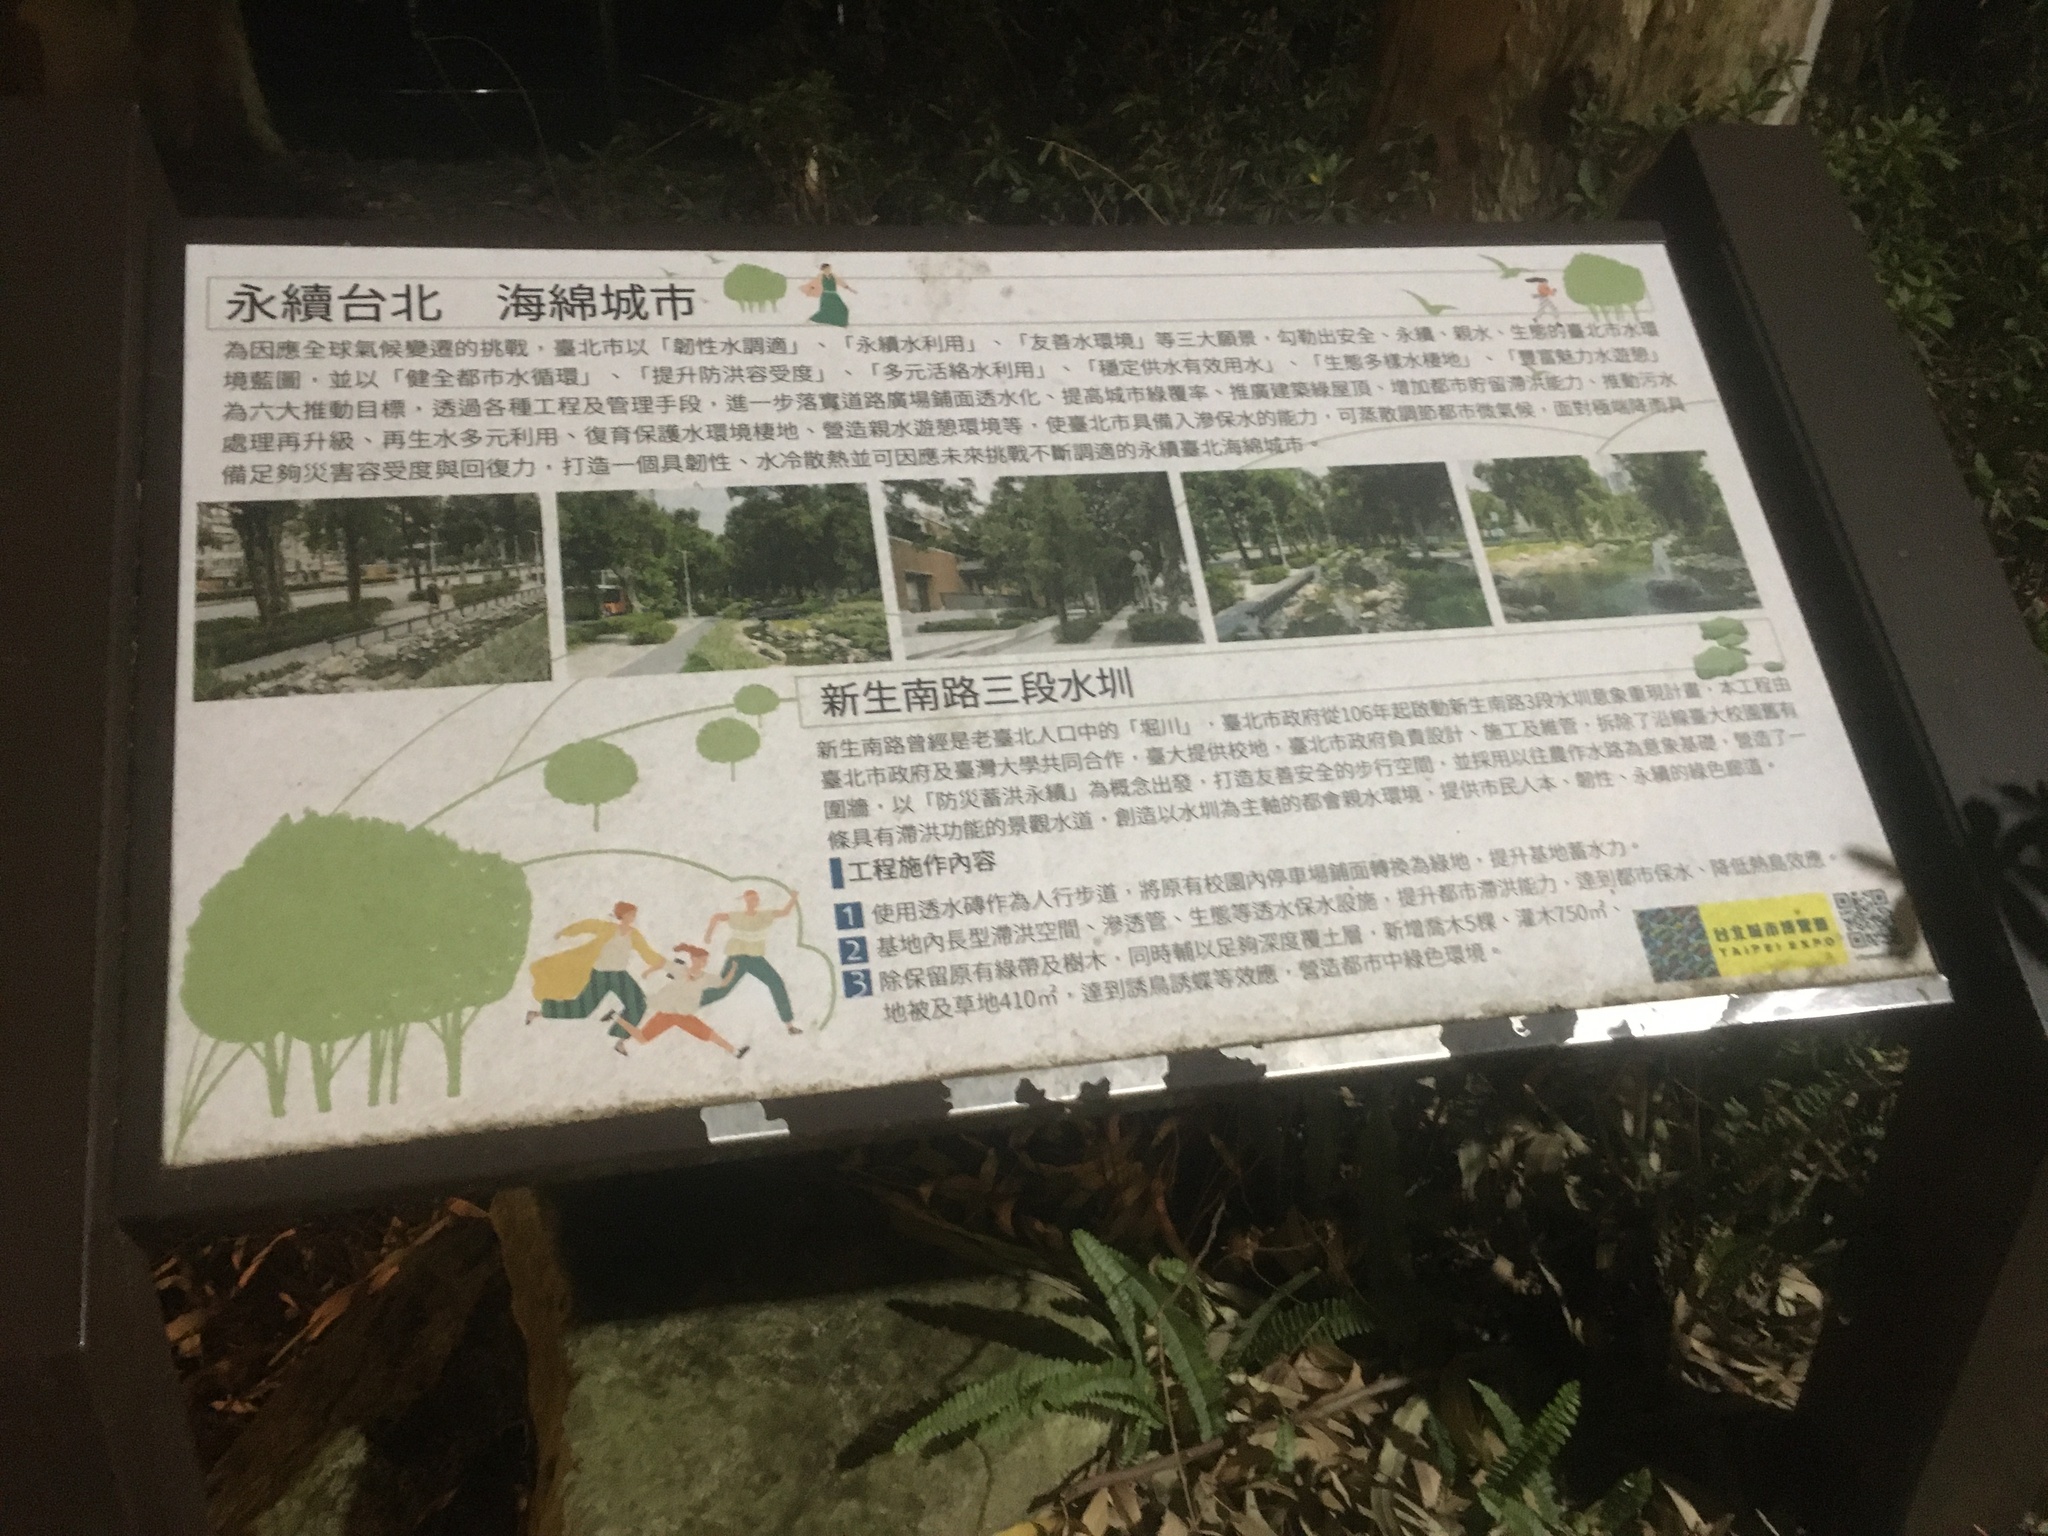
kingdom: Animalia
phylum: Chordata
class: Aves
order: Pelecaniformes
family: Ardeidae
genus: Nycticorax
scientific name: Nycticorax nycticorax
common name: Black-crowned night heron
